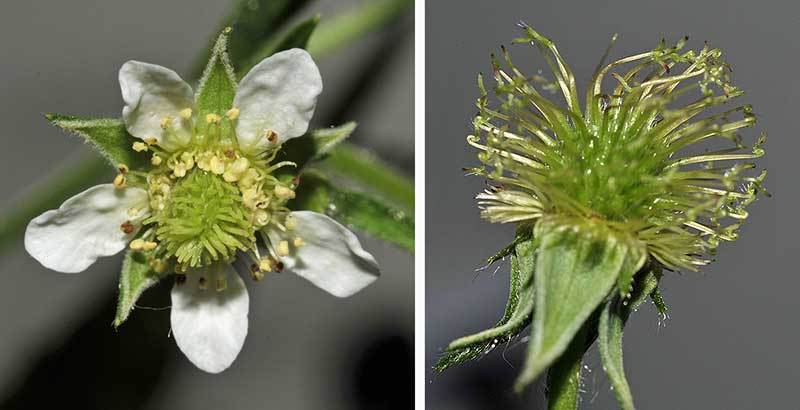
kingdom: Plantae
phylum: Tracheophyta
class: Magnoliopsida
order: Rosales
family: Rosaceae
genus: Geum
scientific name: Geum canadense
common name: White avens
